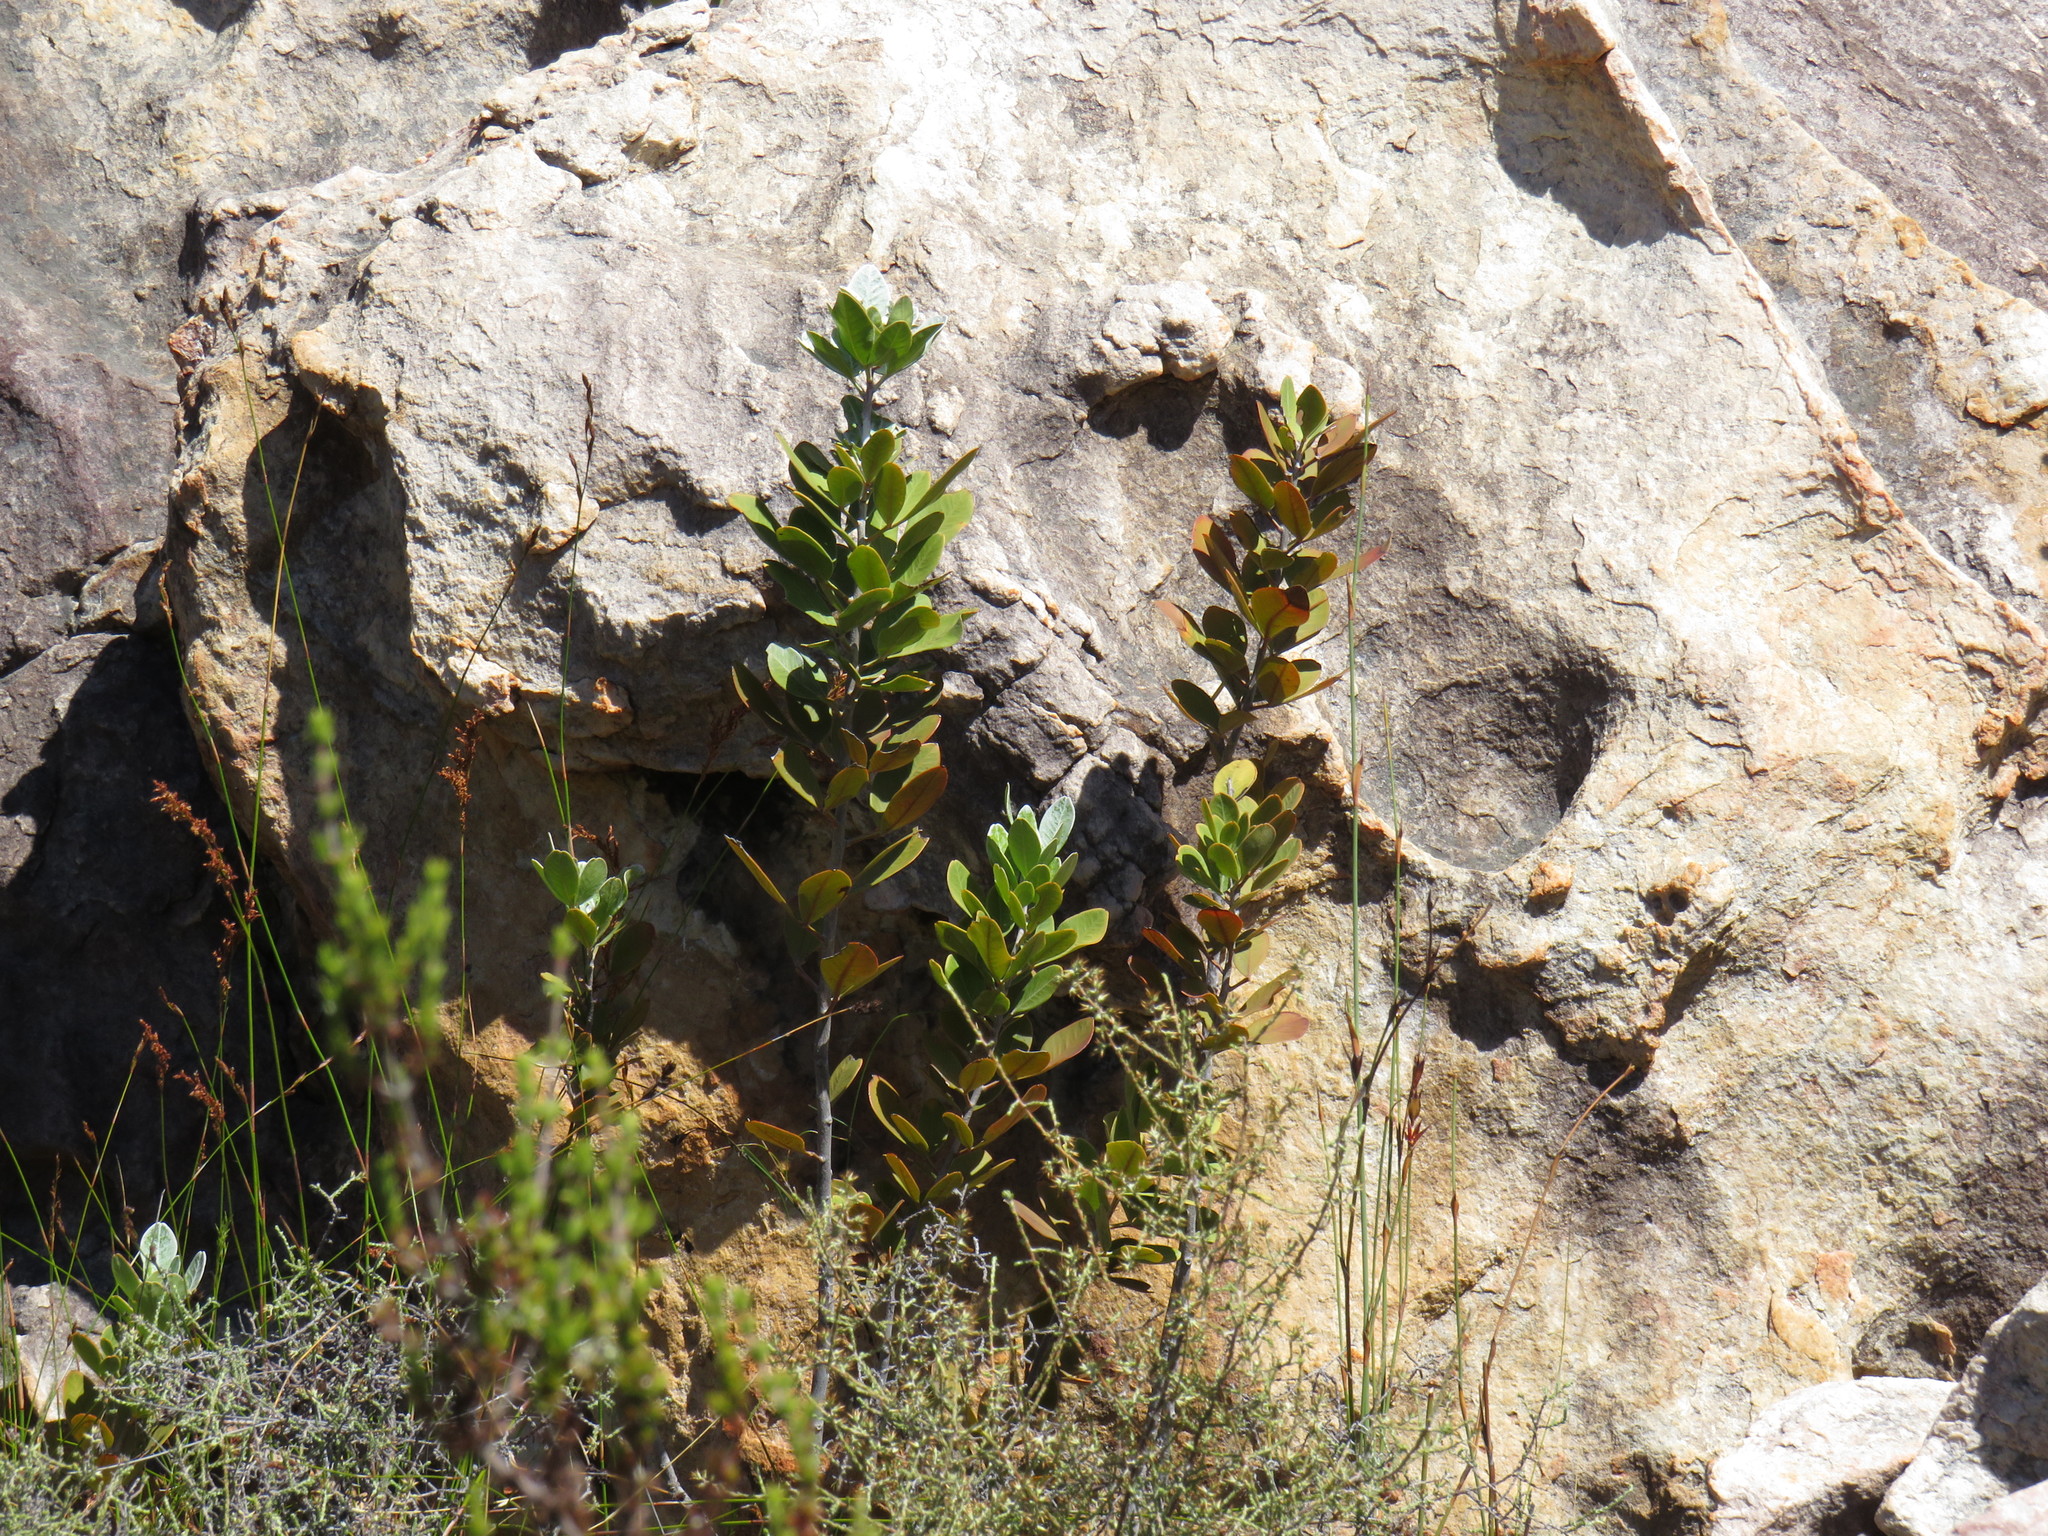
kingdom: Plantae
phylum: Tracheophyta
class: Magnoliopsida
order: Sapindales
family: Anacardiaceae
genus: Searsia
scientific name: Searsia scytophylla
